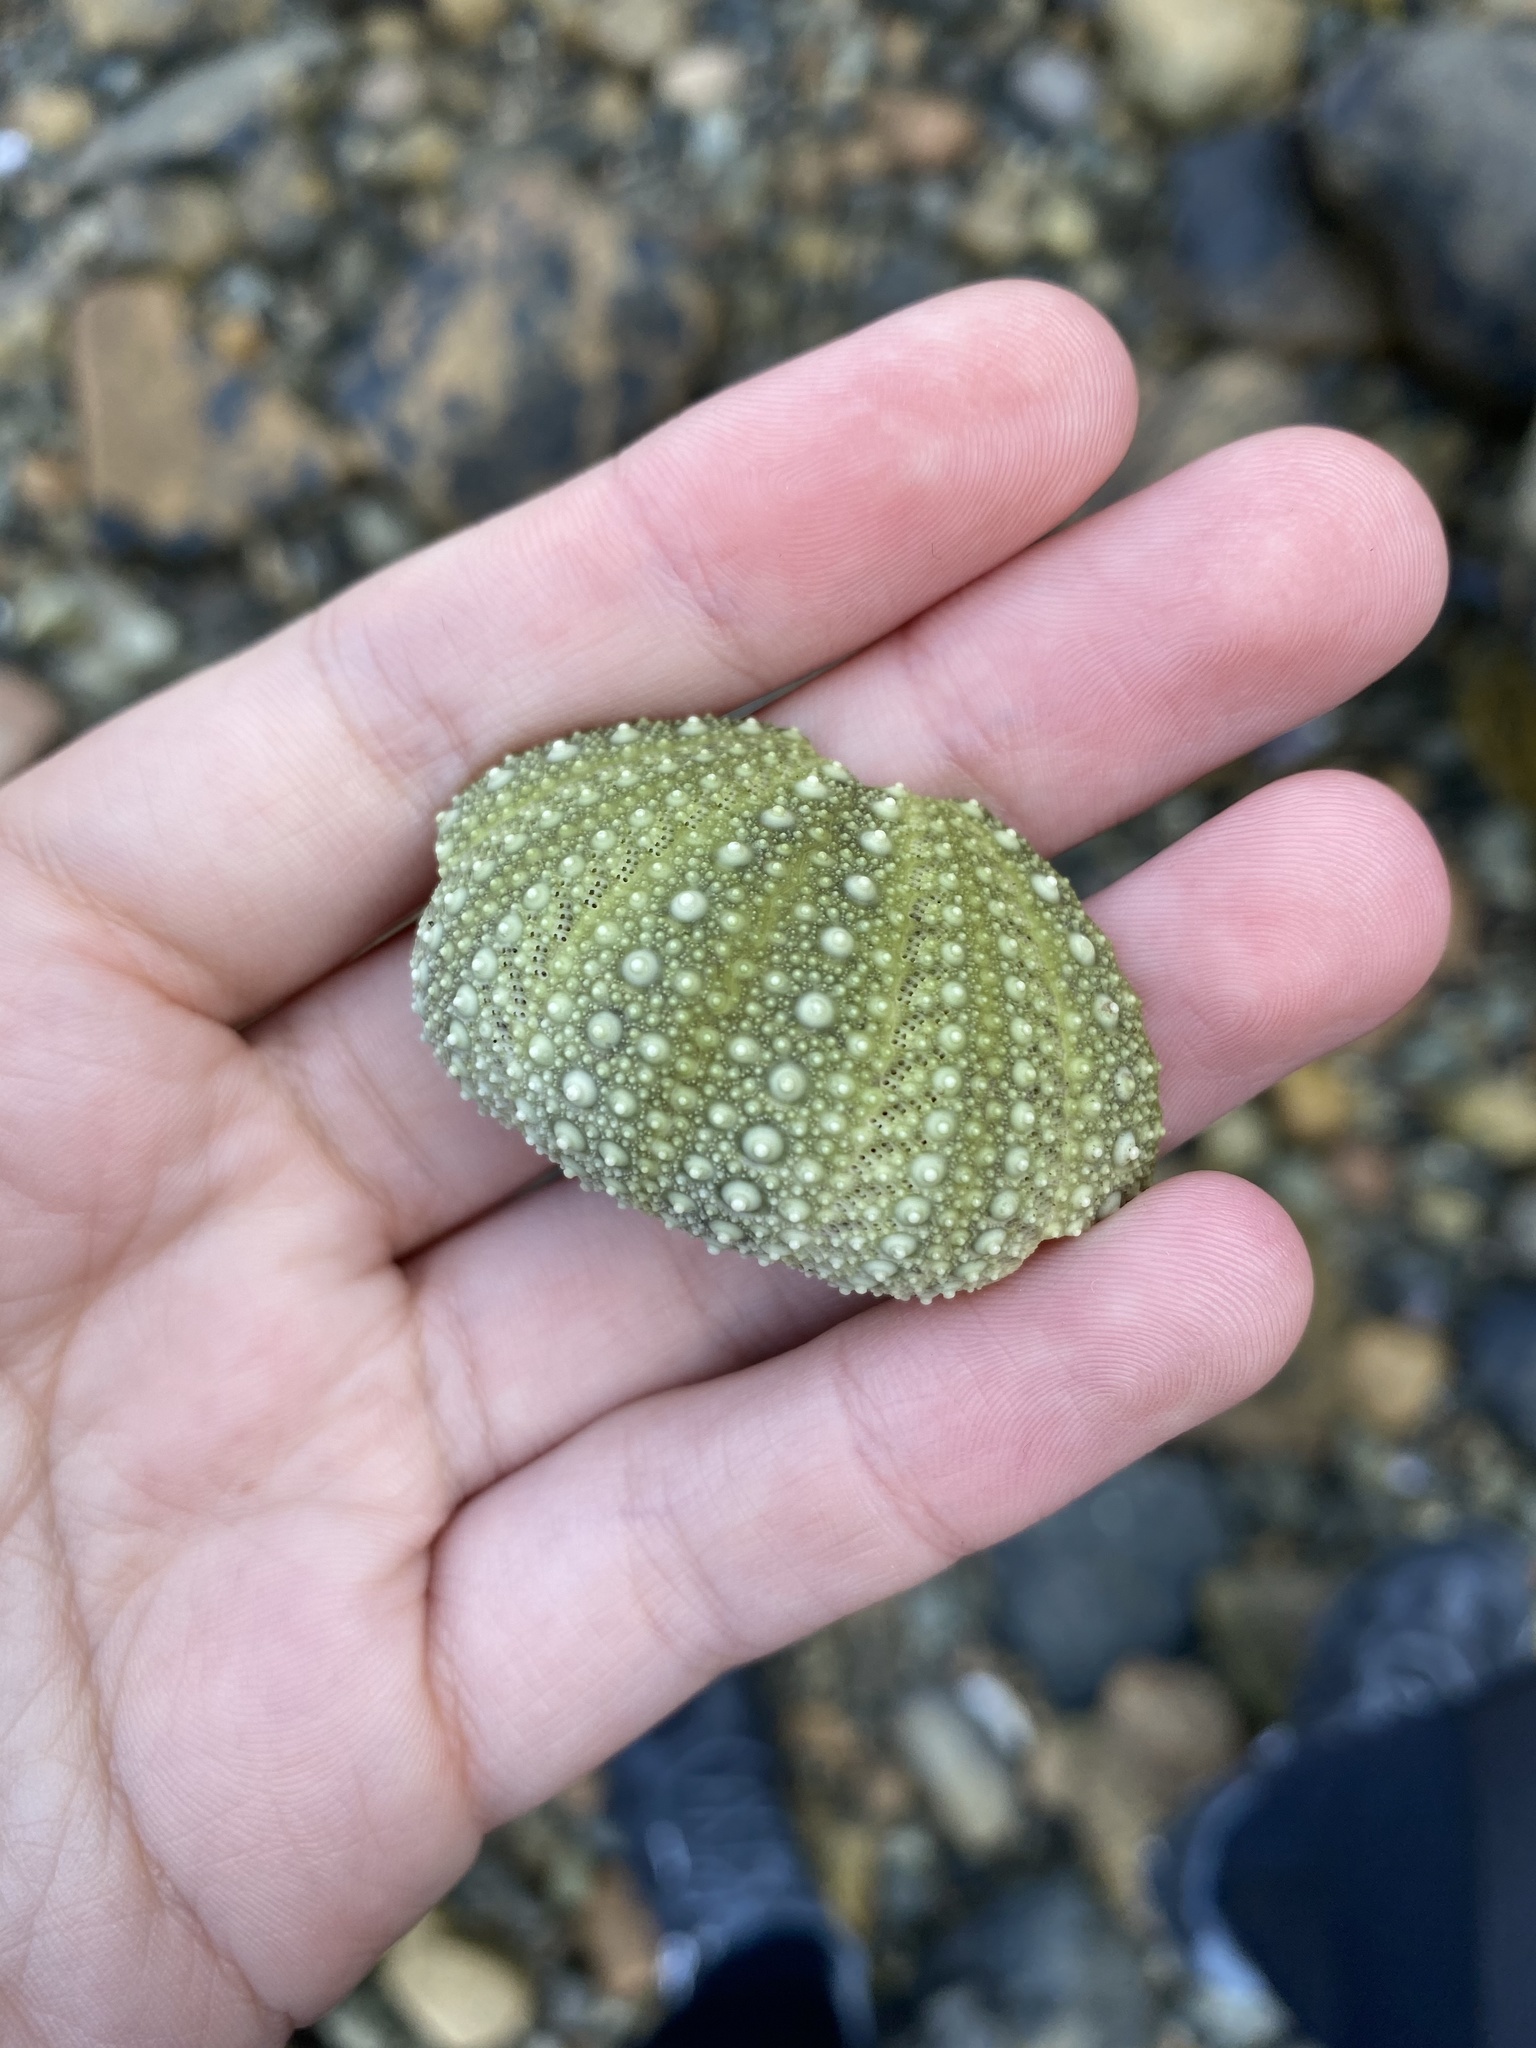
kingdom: Animalia
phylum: Echinodermata
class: Echinoidea
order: Camarodonta
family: Strongylocentrotidae
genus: Strongylocentrotus
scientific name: Strongylocentrotus droebachiensis
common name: Northern sea urchin
